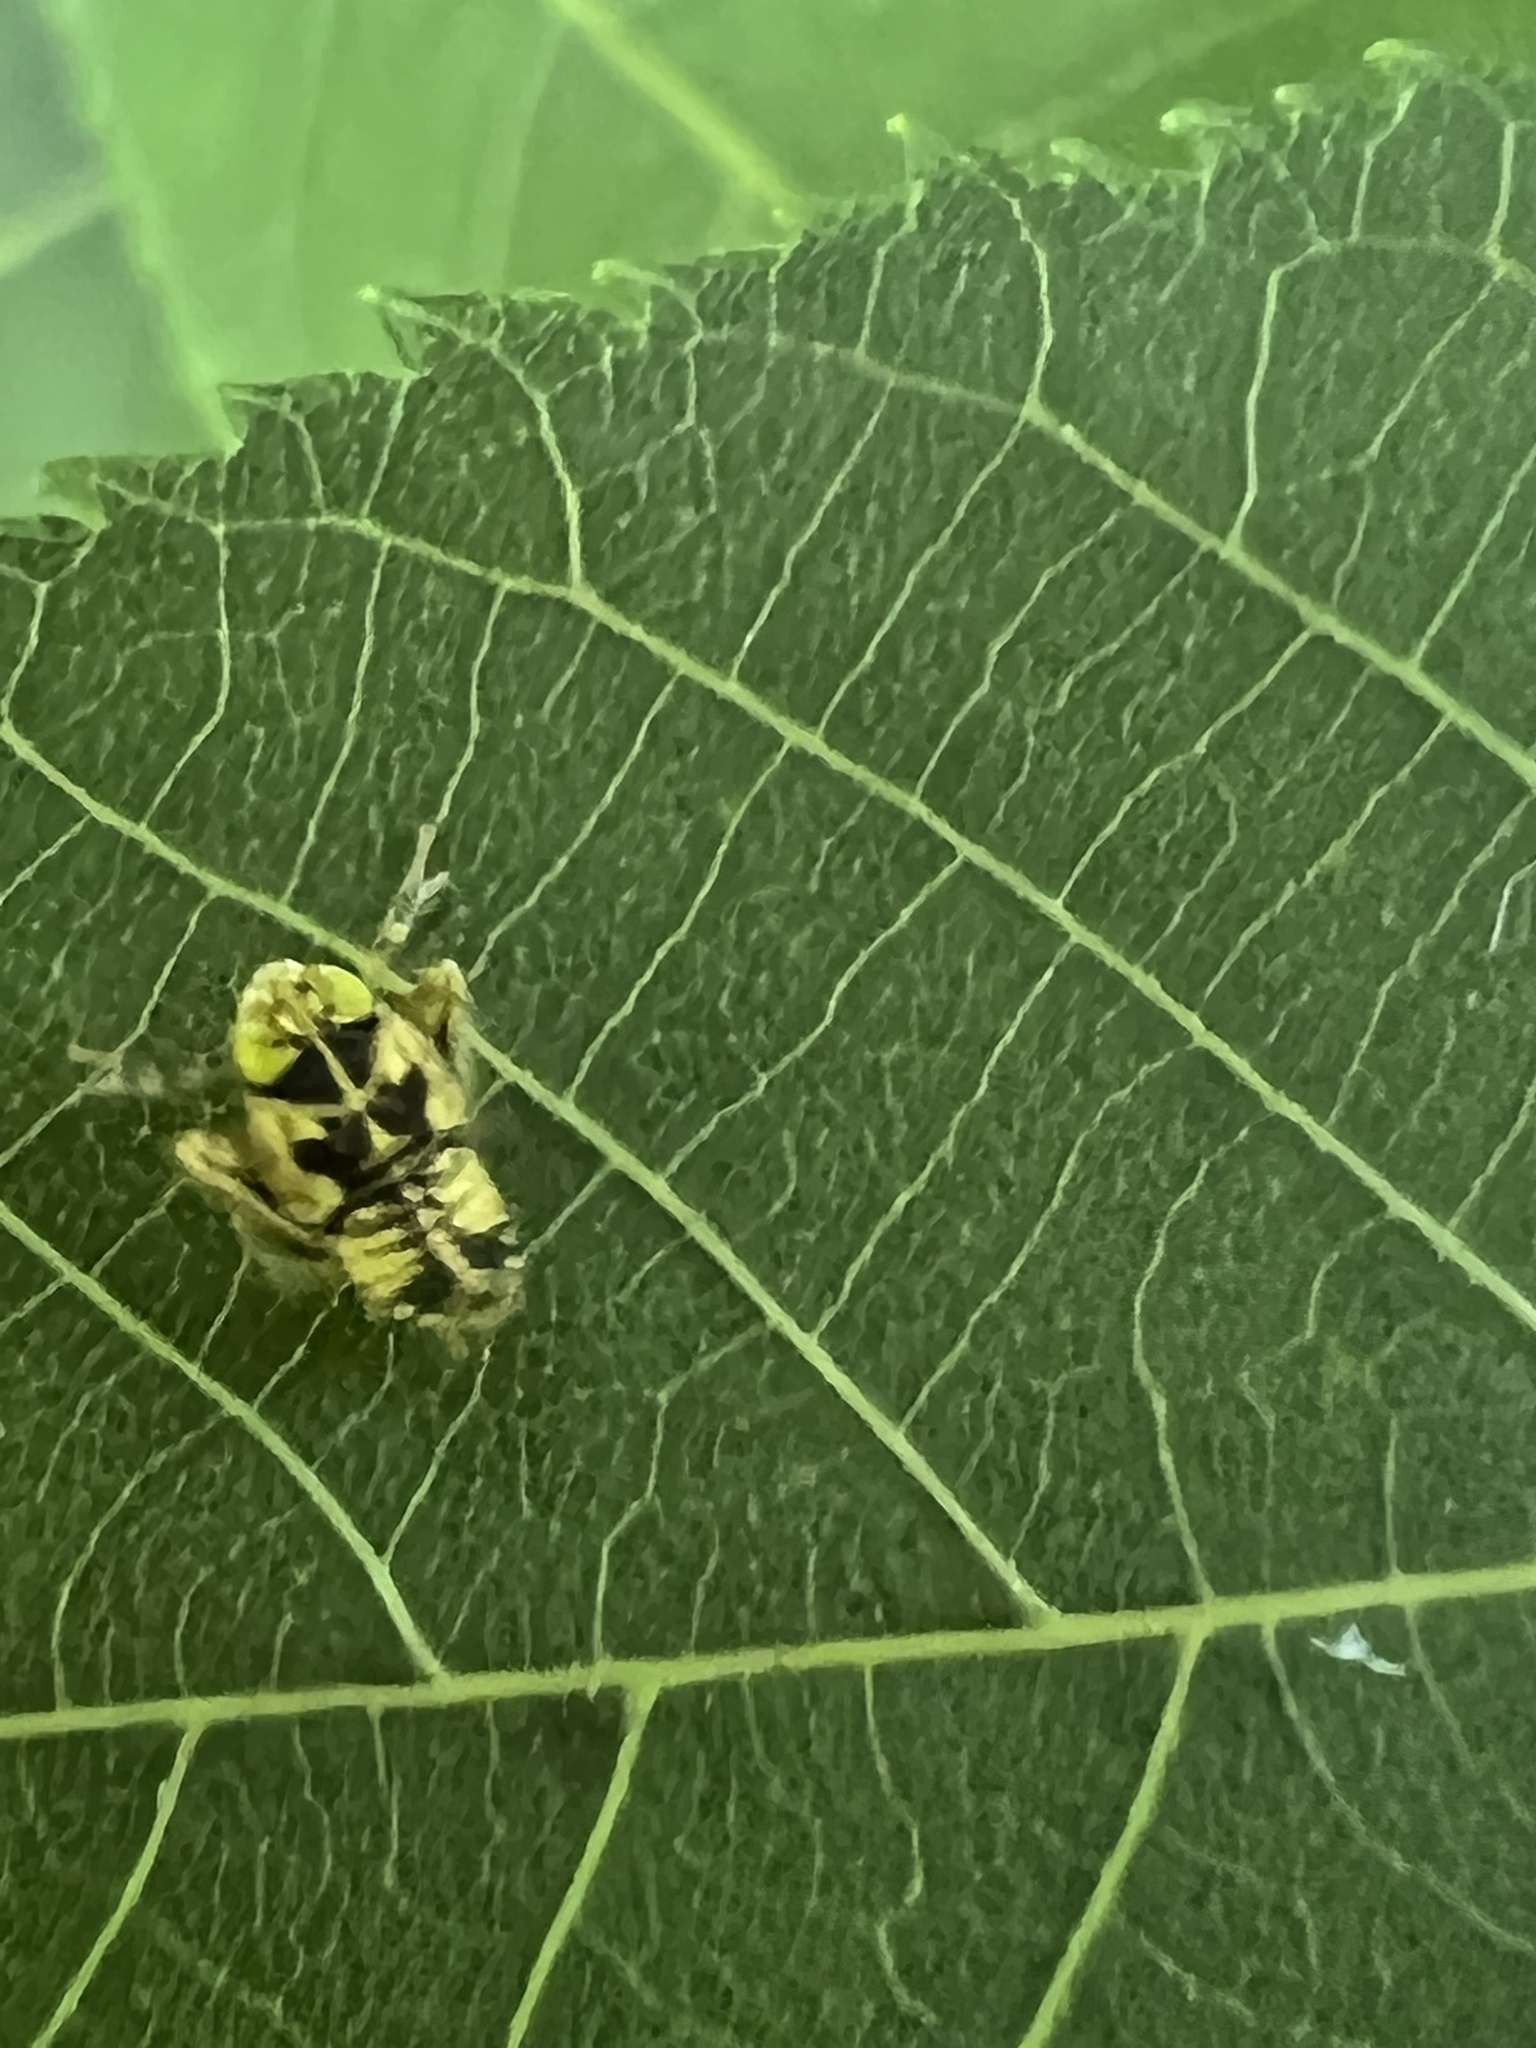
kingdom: Animalia
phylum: Arthropoda
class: Insecta
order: Hemiptera
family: Cicadellidae
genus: Jikradia
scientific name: Jikradia olitoria
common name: Coppery leafhopper
